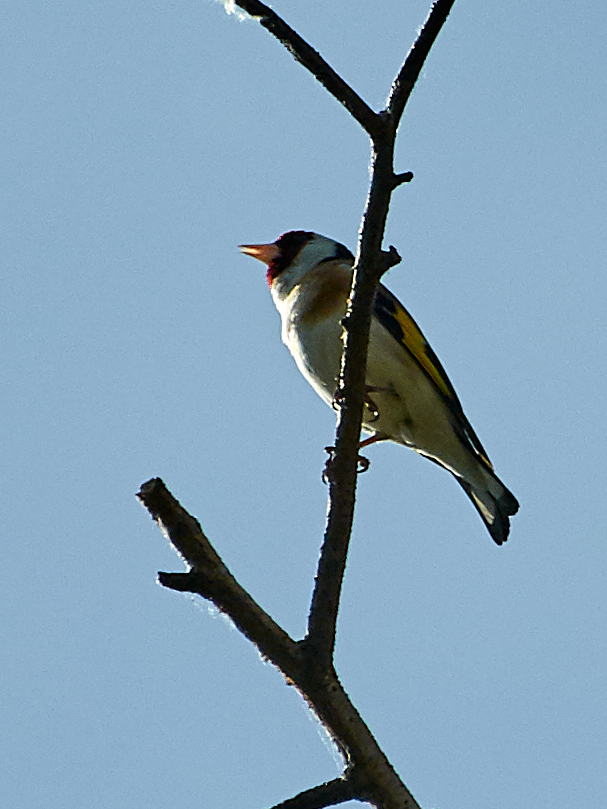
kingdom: Animalia
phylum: Chordata
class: Aves
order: Passeriformes
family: Fringillidae
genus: Carduelis
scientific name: Carduelis carduelis
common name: European goldfinch
